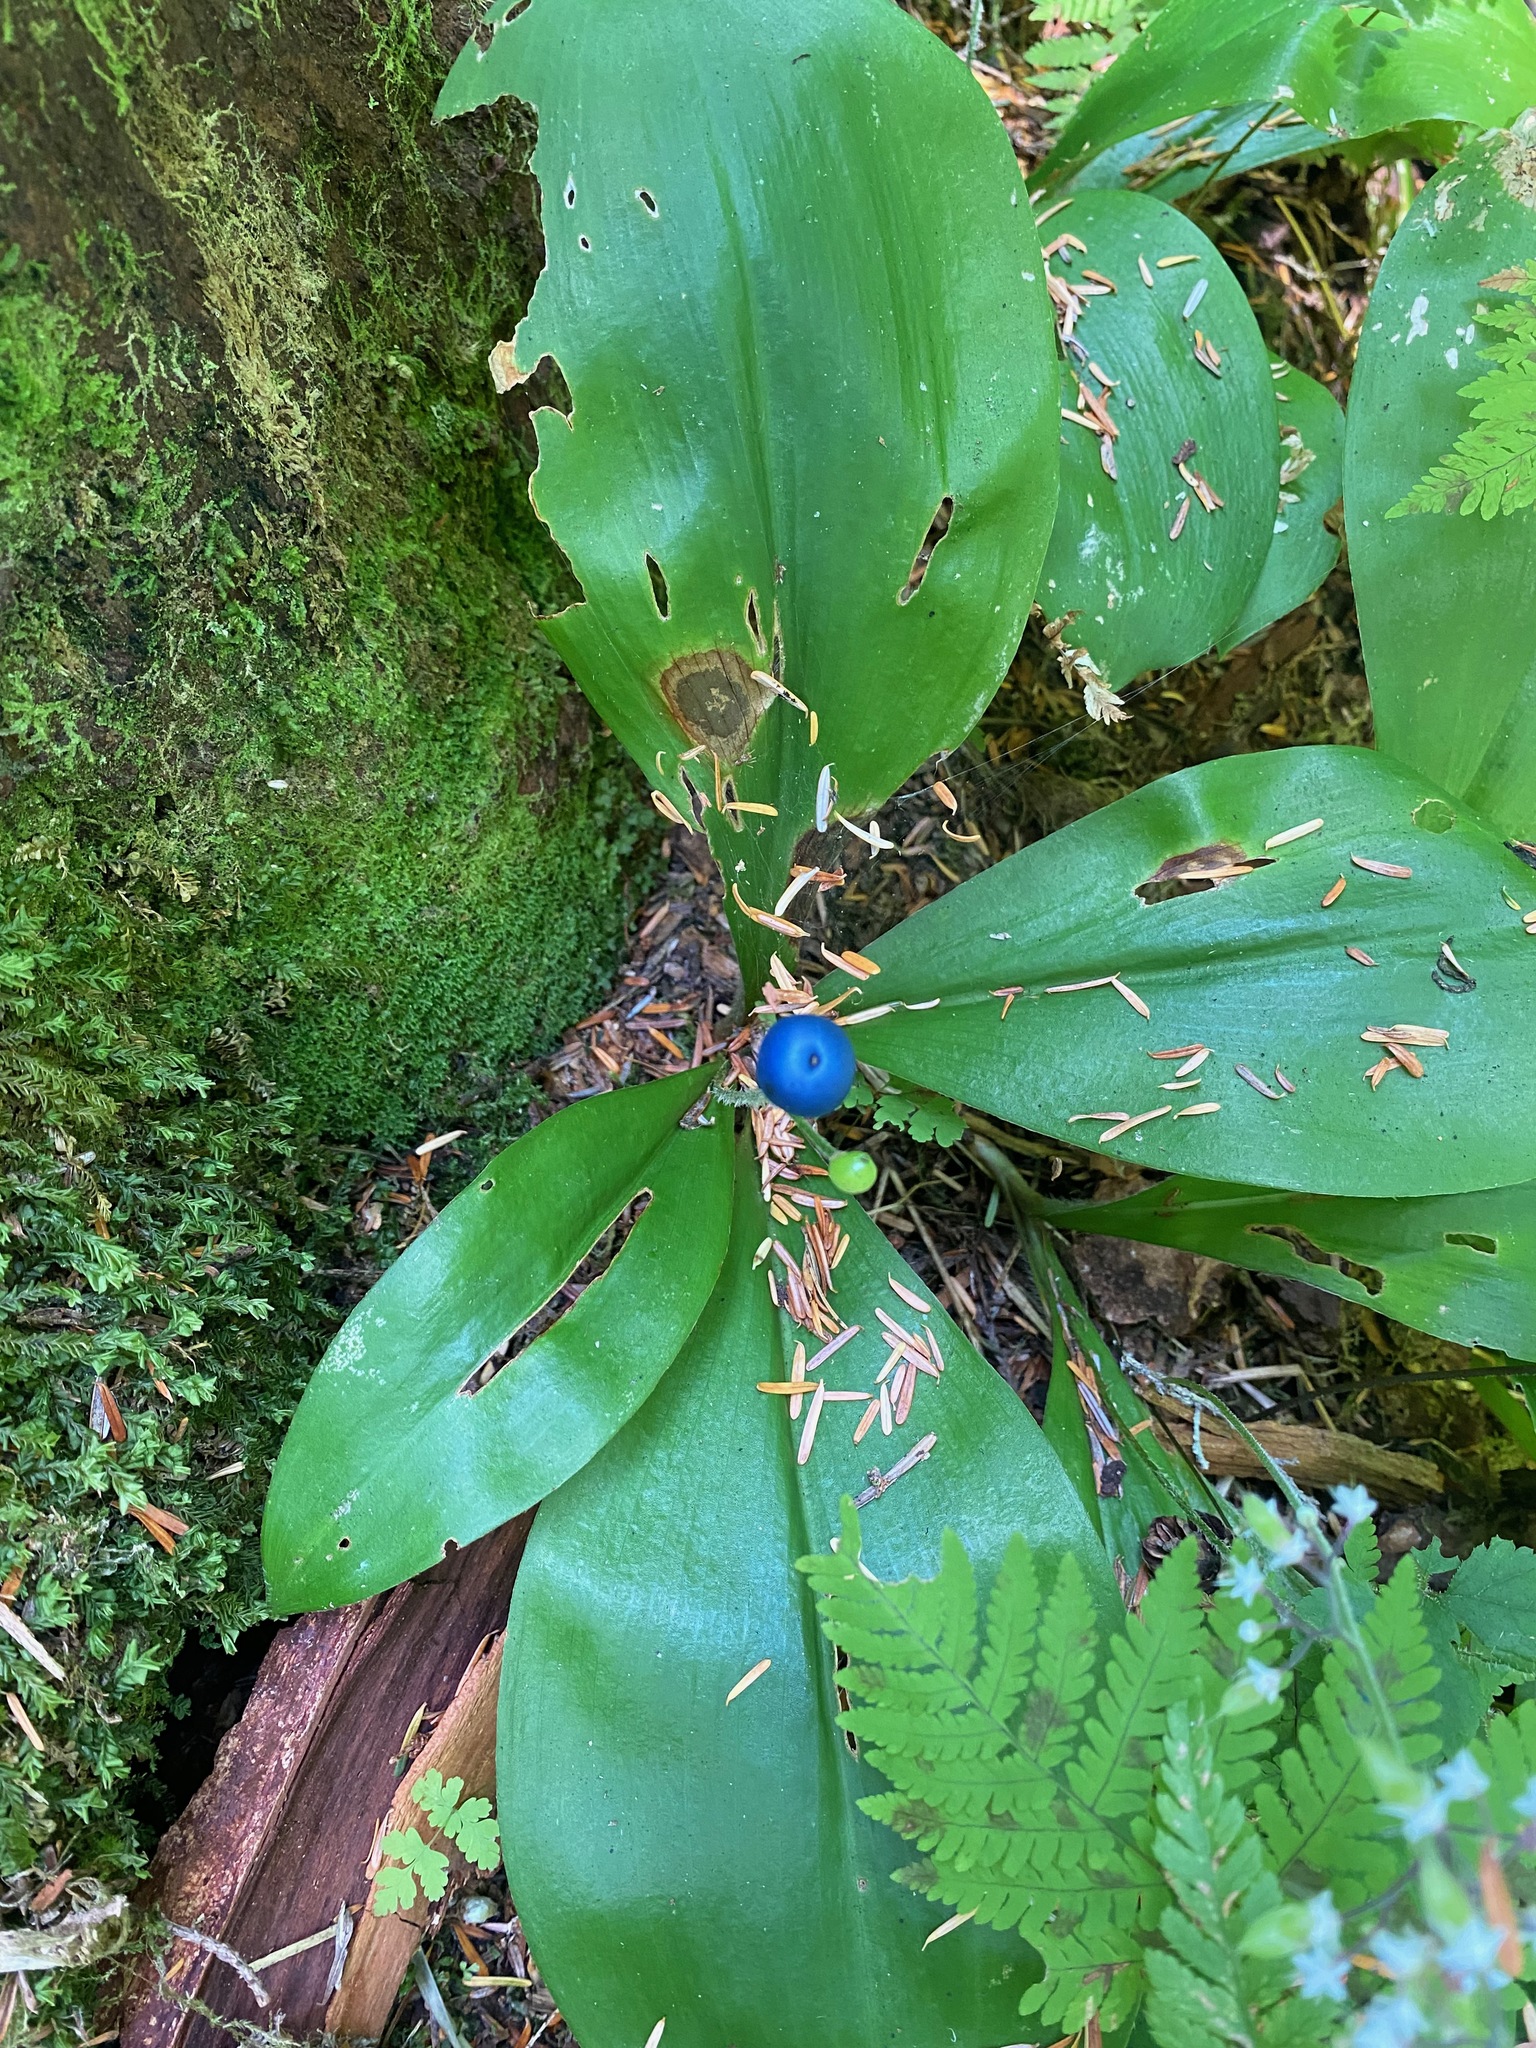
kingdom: Plantae
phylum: Tracheophyta
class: Liliopsida
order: Liliales
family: Liliaceae
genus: Clintonia
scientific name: Clintonia uniflora
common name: Queen's cup
